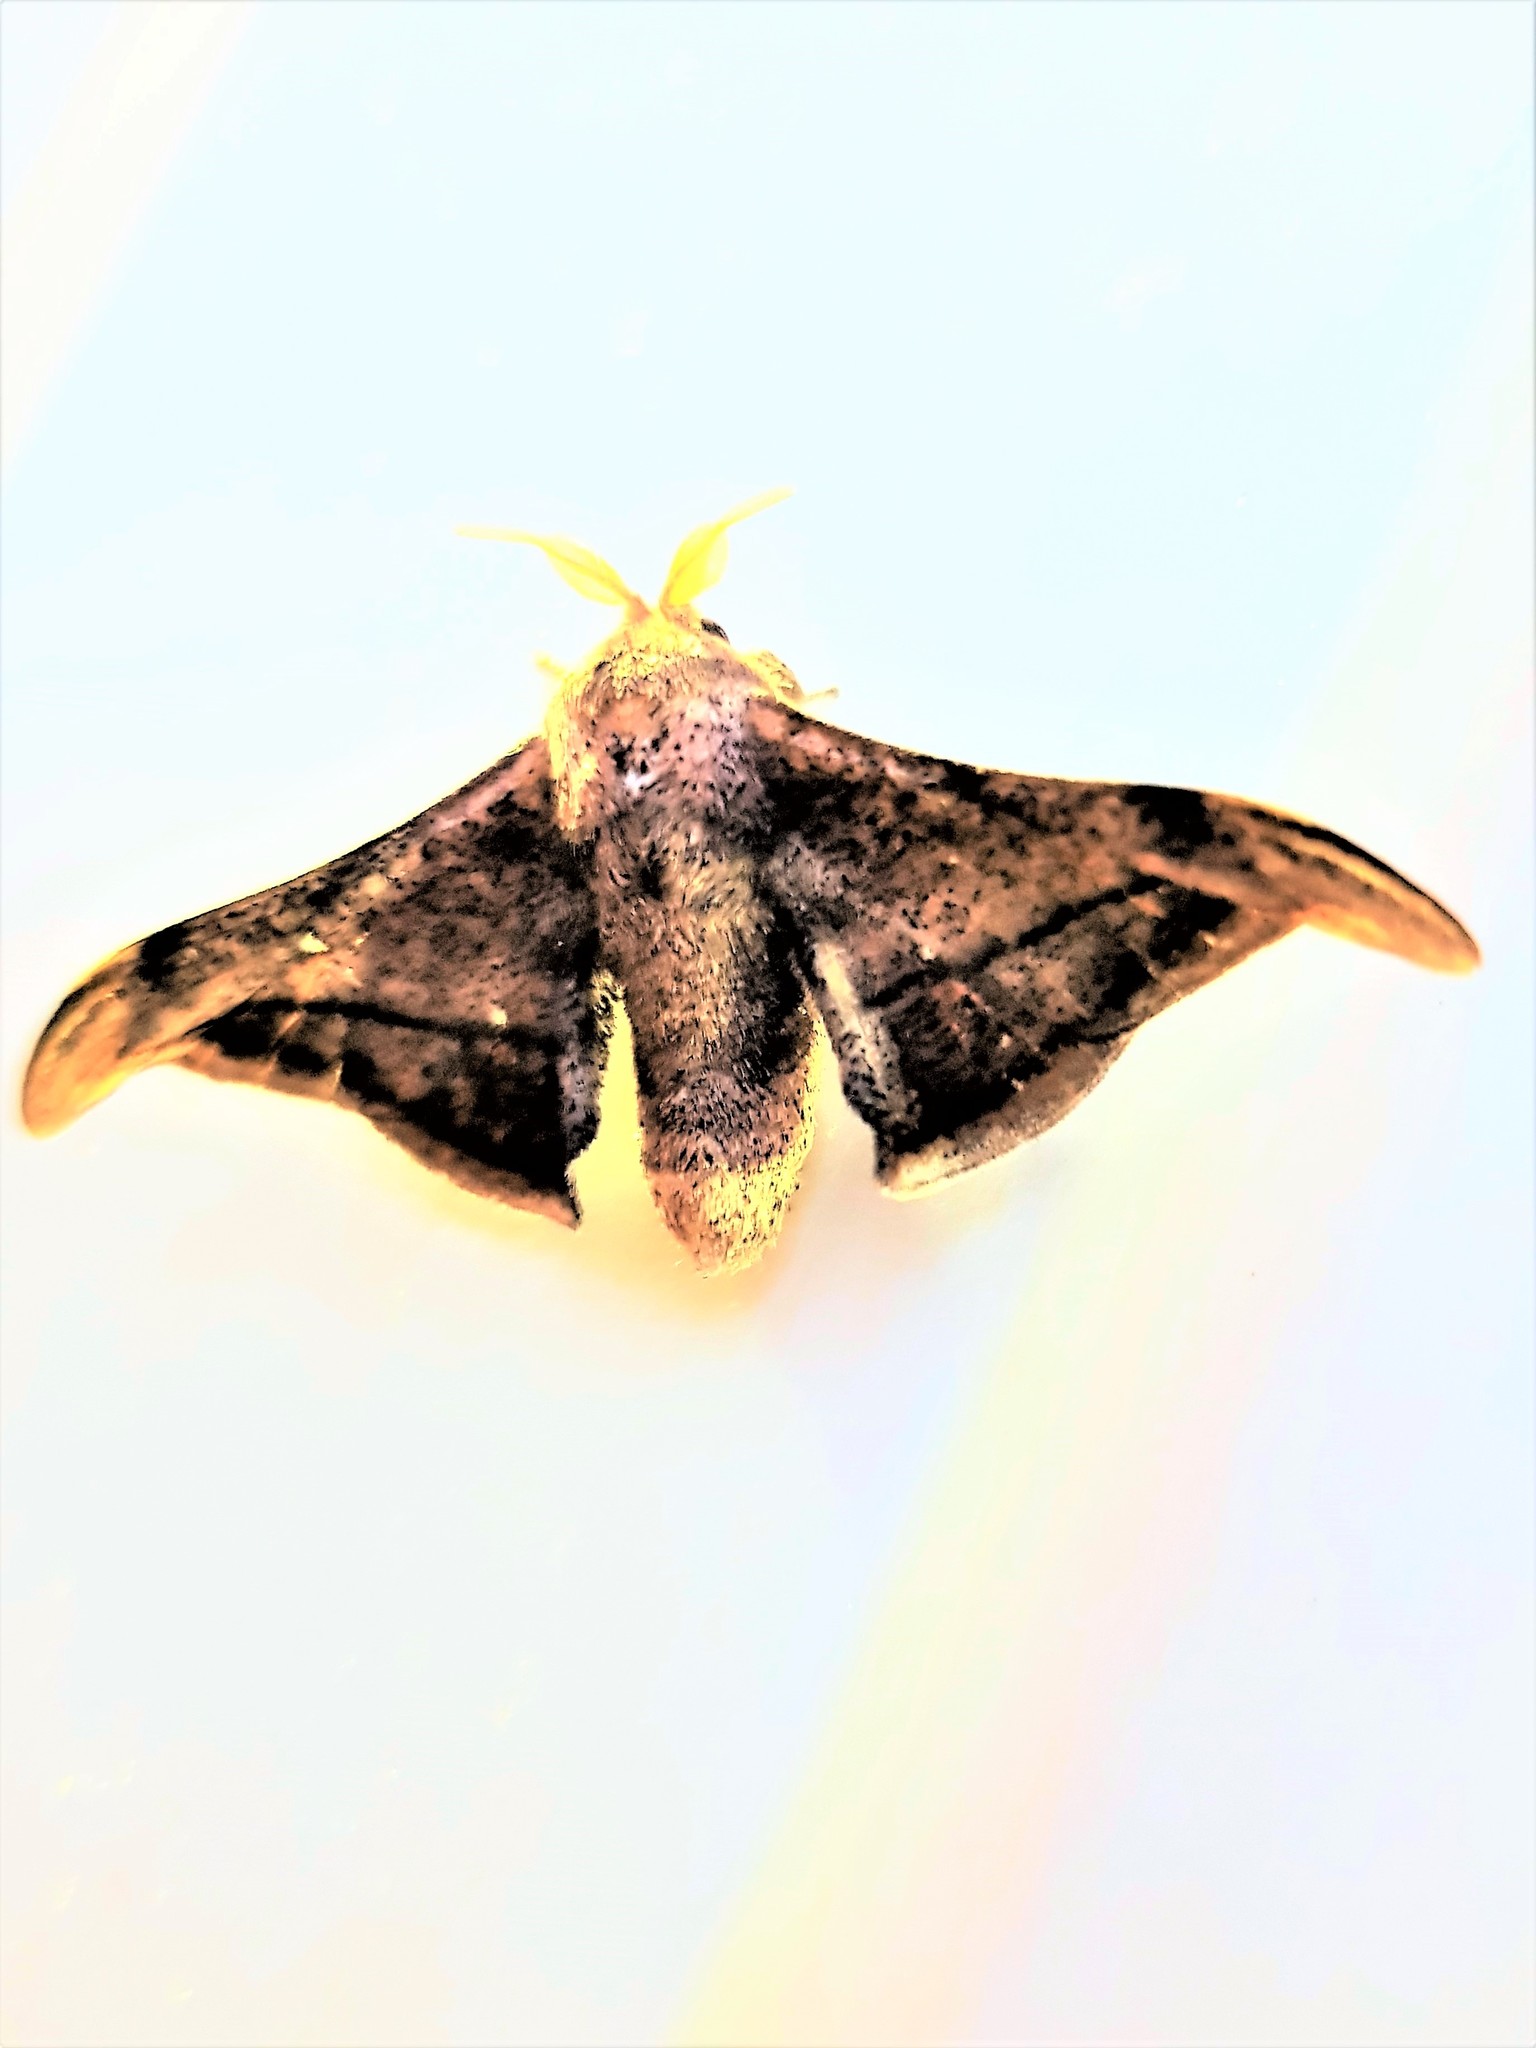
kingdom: Animalia
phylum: Arthropoda
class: Insecta
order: Lepidoptera
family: Mimallonidae
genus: Cicinnus
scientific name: Cicinnus malca
